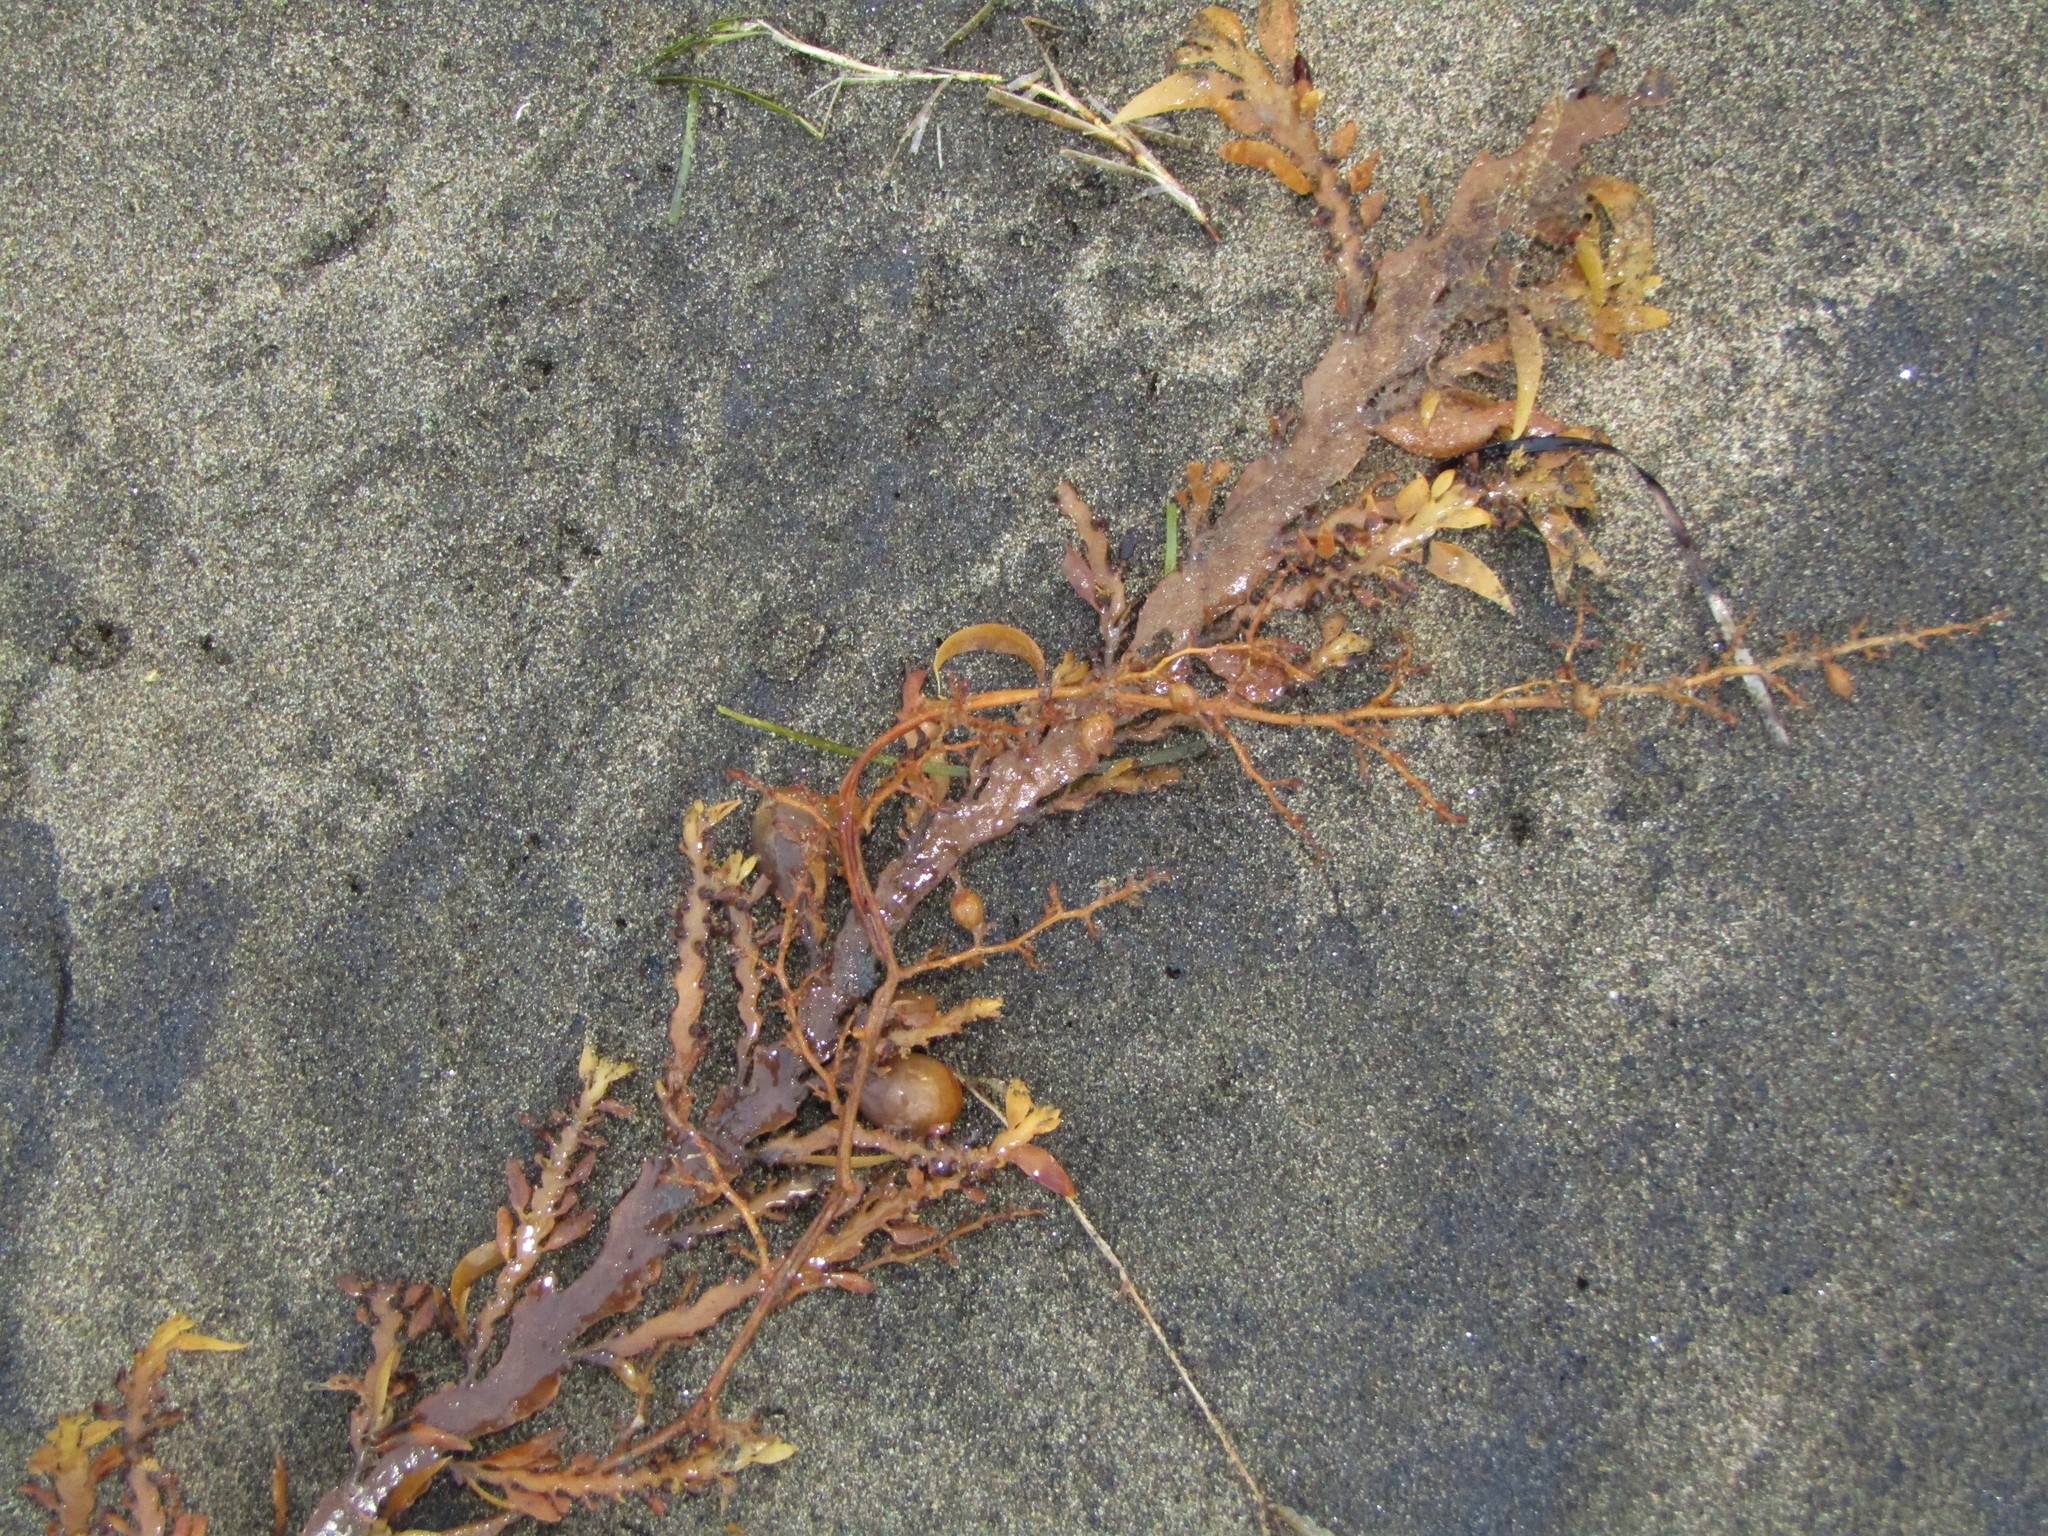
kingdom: Chromista
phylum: Ochrophyta
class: Phaeophyceae
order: Fucales
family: Sargassaceae
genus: Carpophyllum
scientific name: Carpophyllum maschalocarpum
